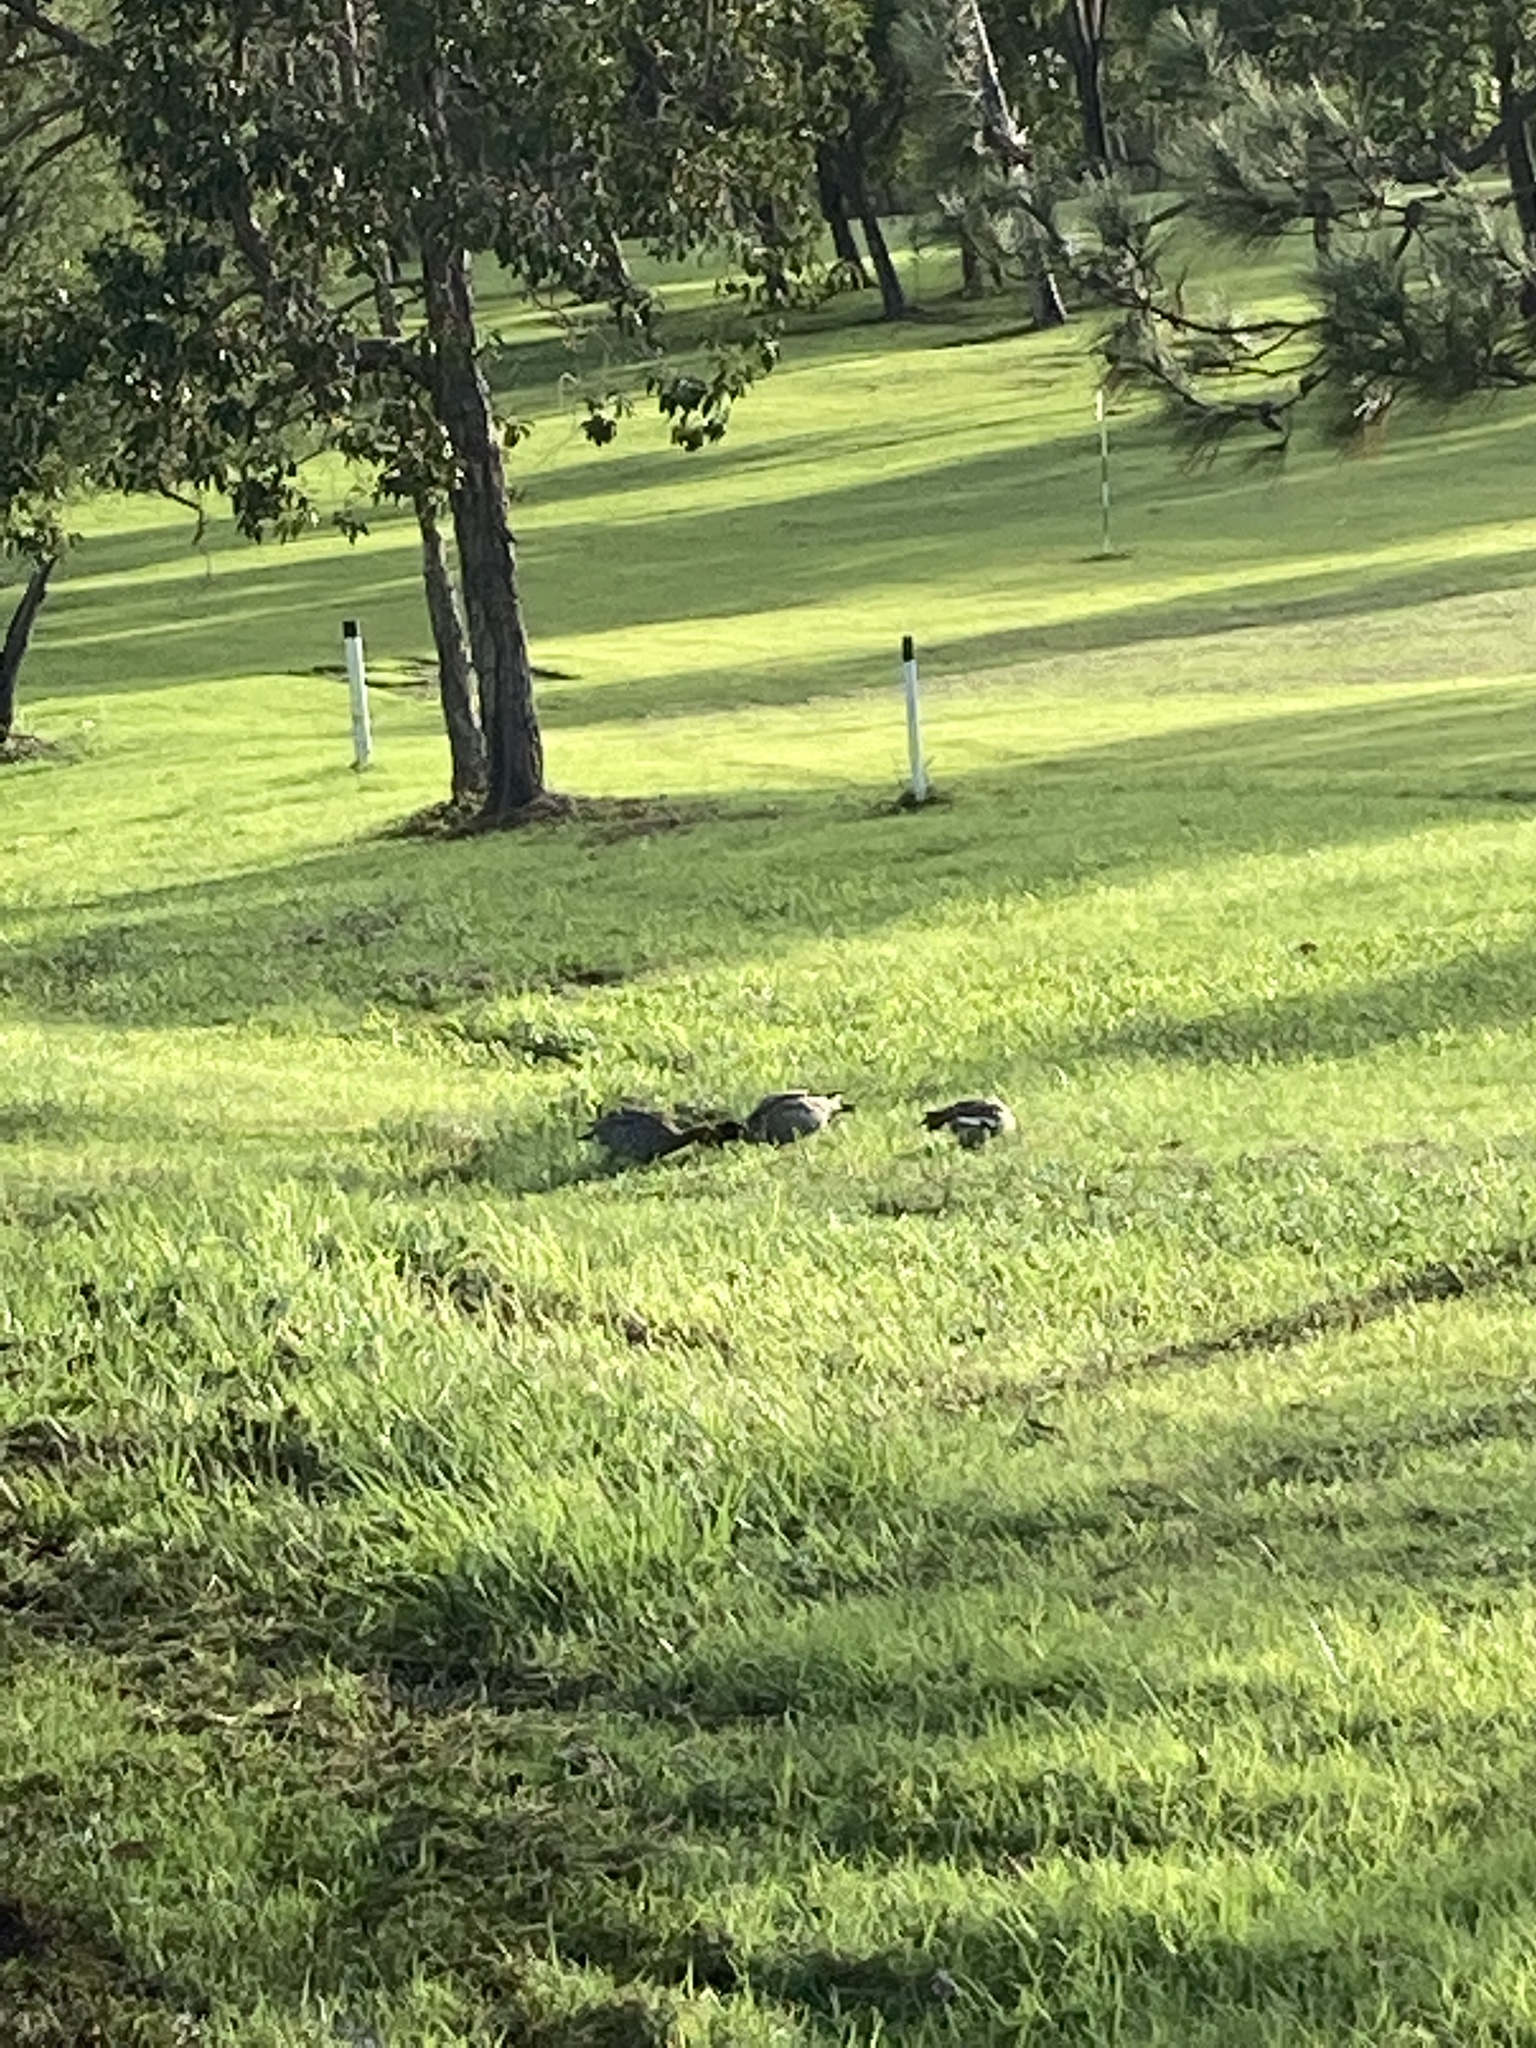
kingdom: Animalia
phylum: Chordata
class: Aves
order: Anseriformes
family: Anatidae
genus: Chenonetta
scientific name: Chenonetta jubata
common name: Maned duck
